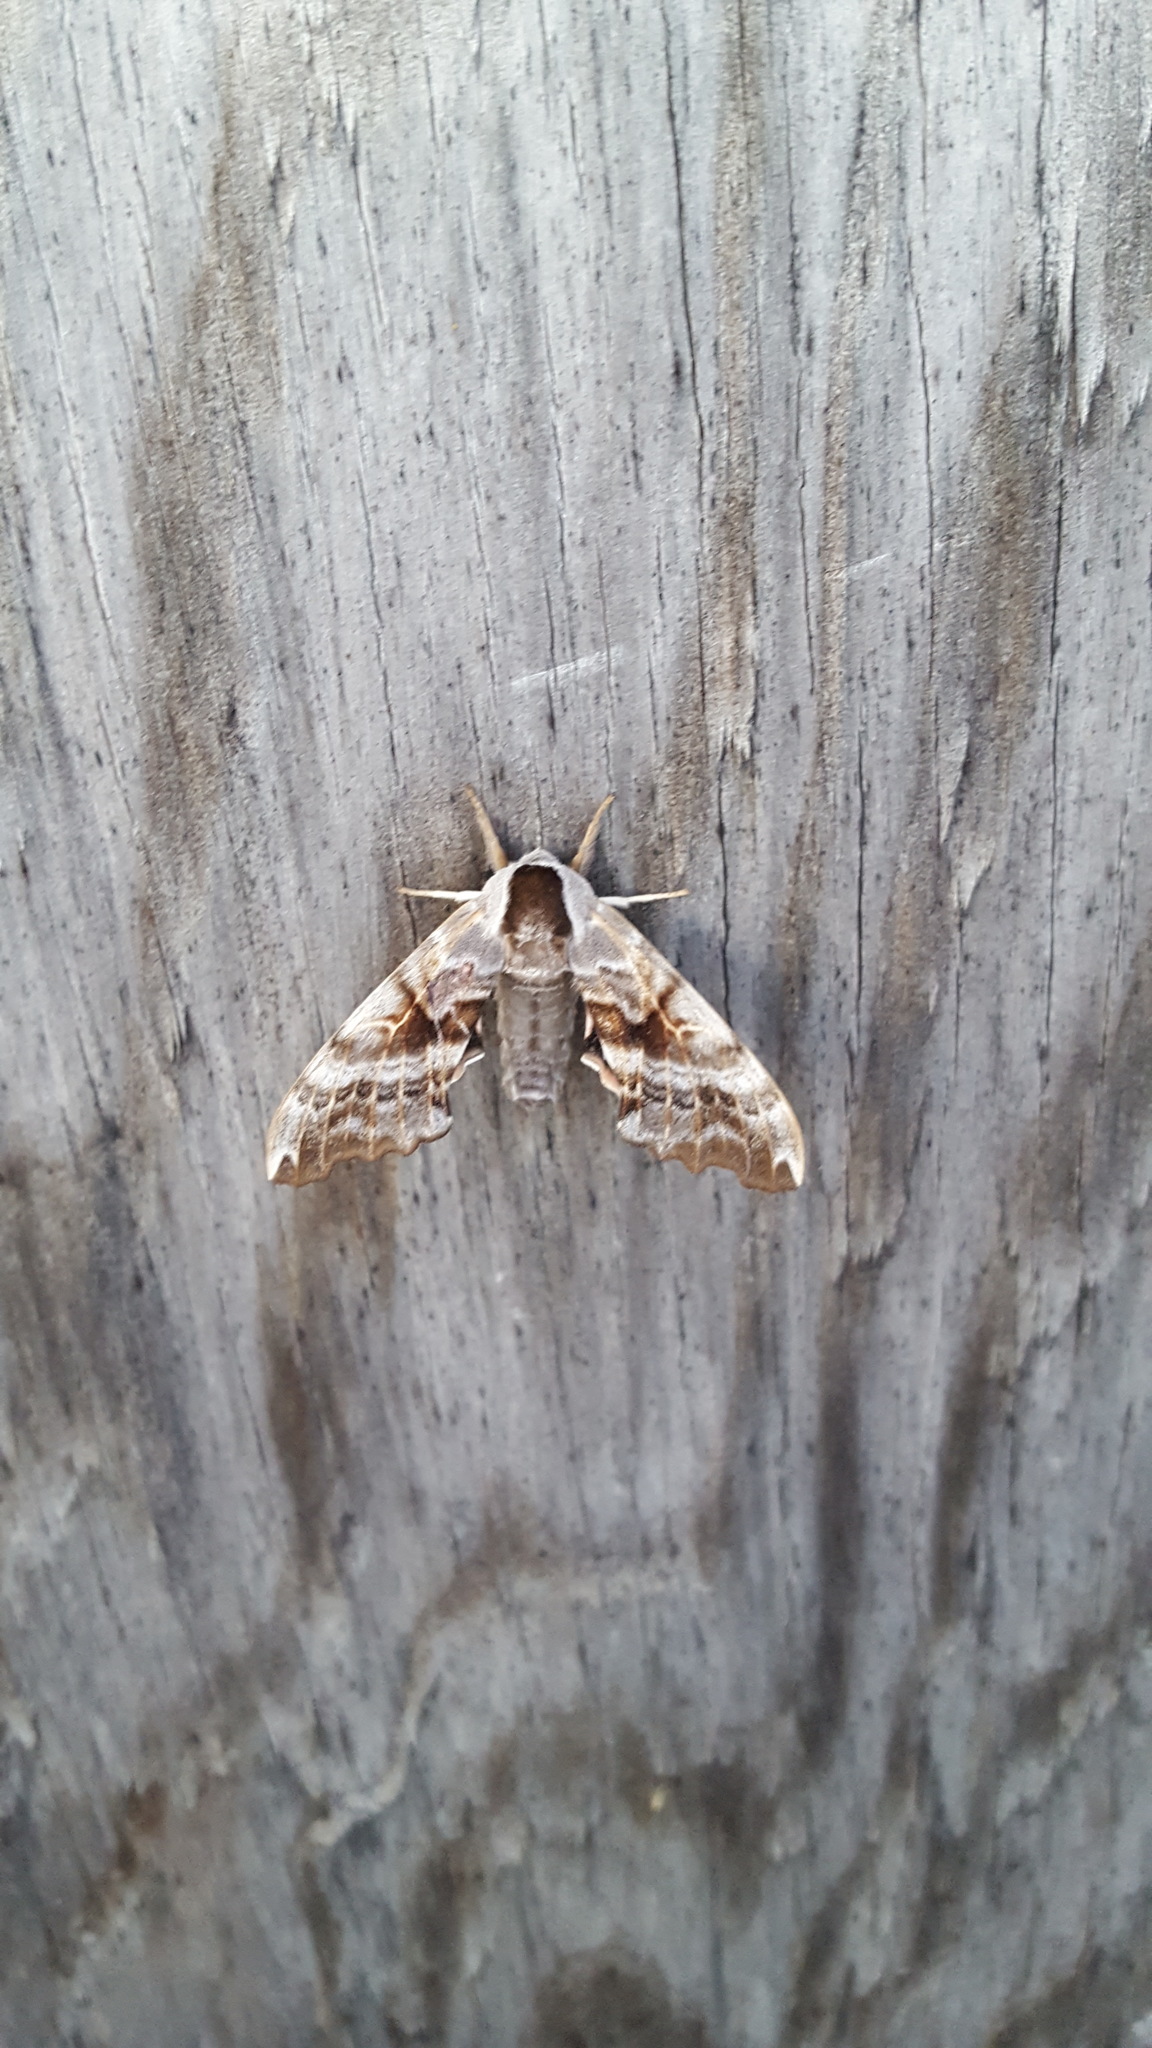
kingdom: Animalia
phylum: Arthropoda
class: Insecta
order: Lepidoptera
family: Sphingidae
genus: Smerinthus
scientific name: Smerinthus cerisyi
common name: Cerisy's sphinx moth
